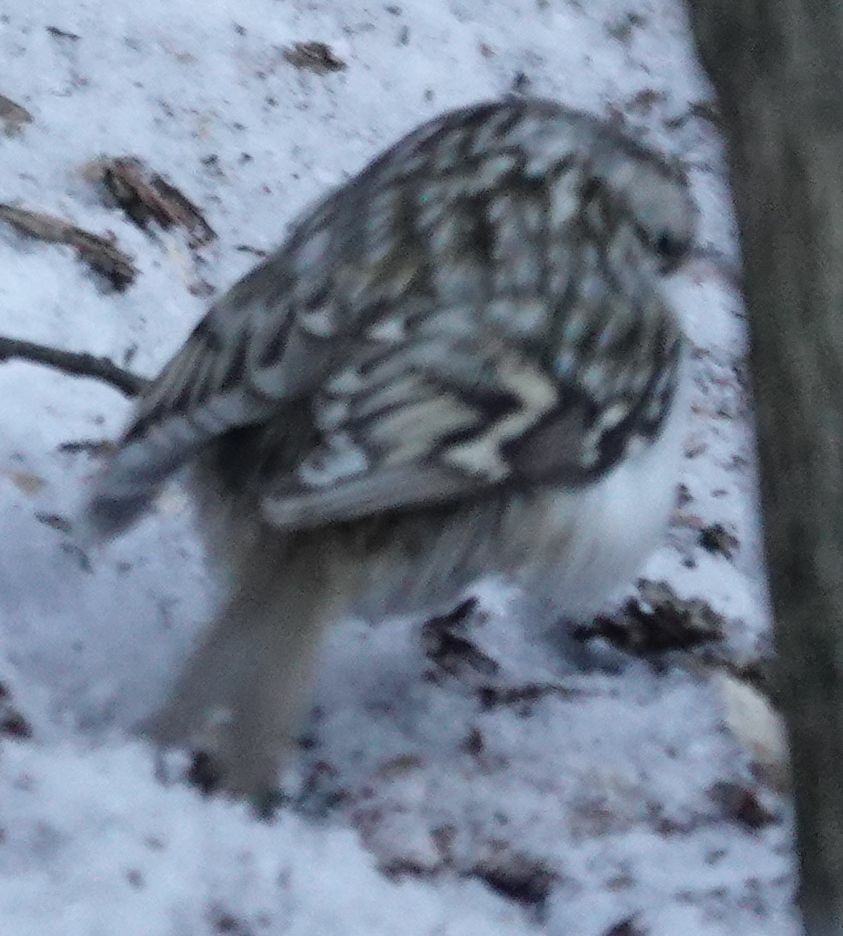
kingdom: Animalia
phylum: Chordata
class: Aves
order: Passeriformes
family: Certhiidae
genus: Certhia
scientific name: Certhia familiaris
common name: Eurasian treecreeper
